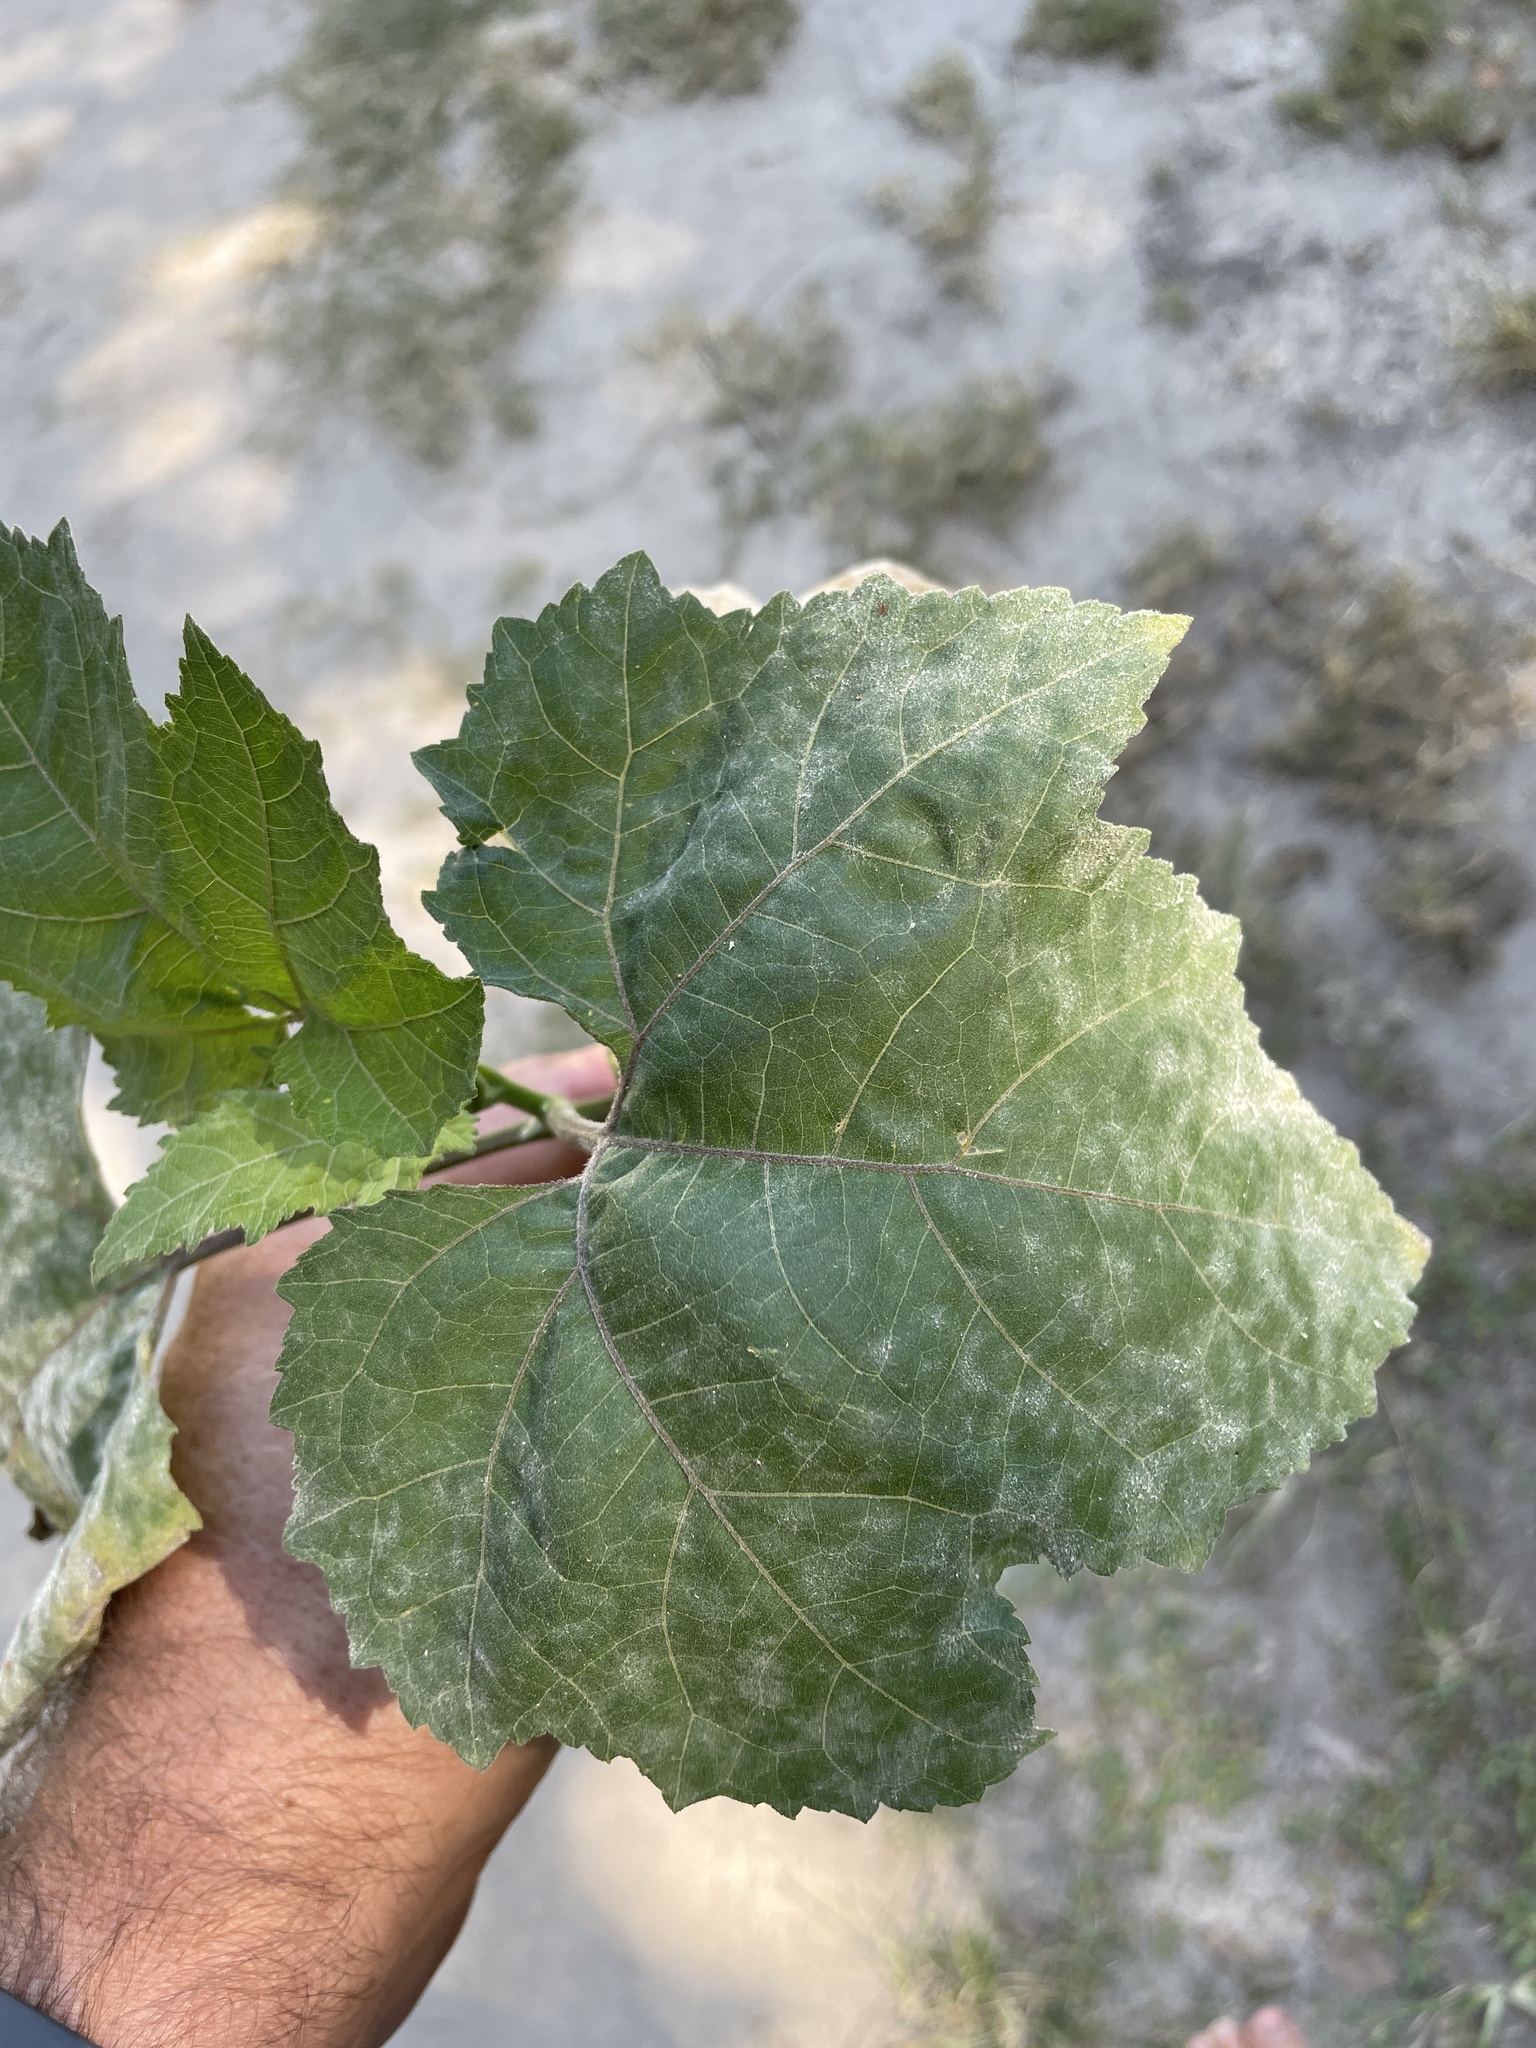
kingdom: Plantae
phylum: Tracheophyta
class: Magnoliopsida
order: Asterales
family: Asteraceae
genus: Xanthium
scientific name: Xanthium strumarium
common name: Rough cocklebur
